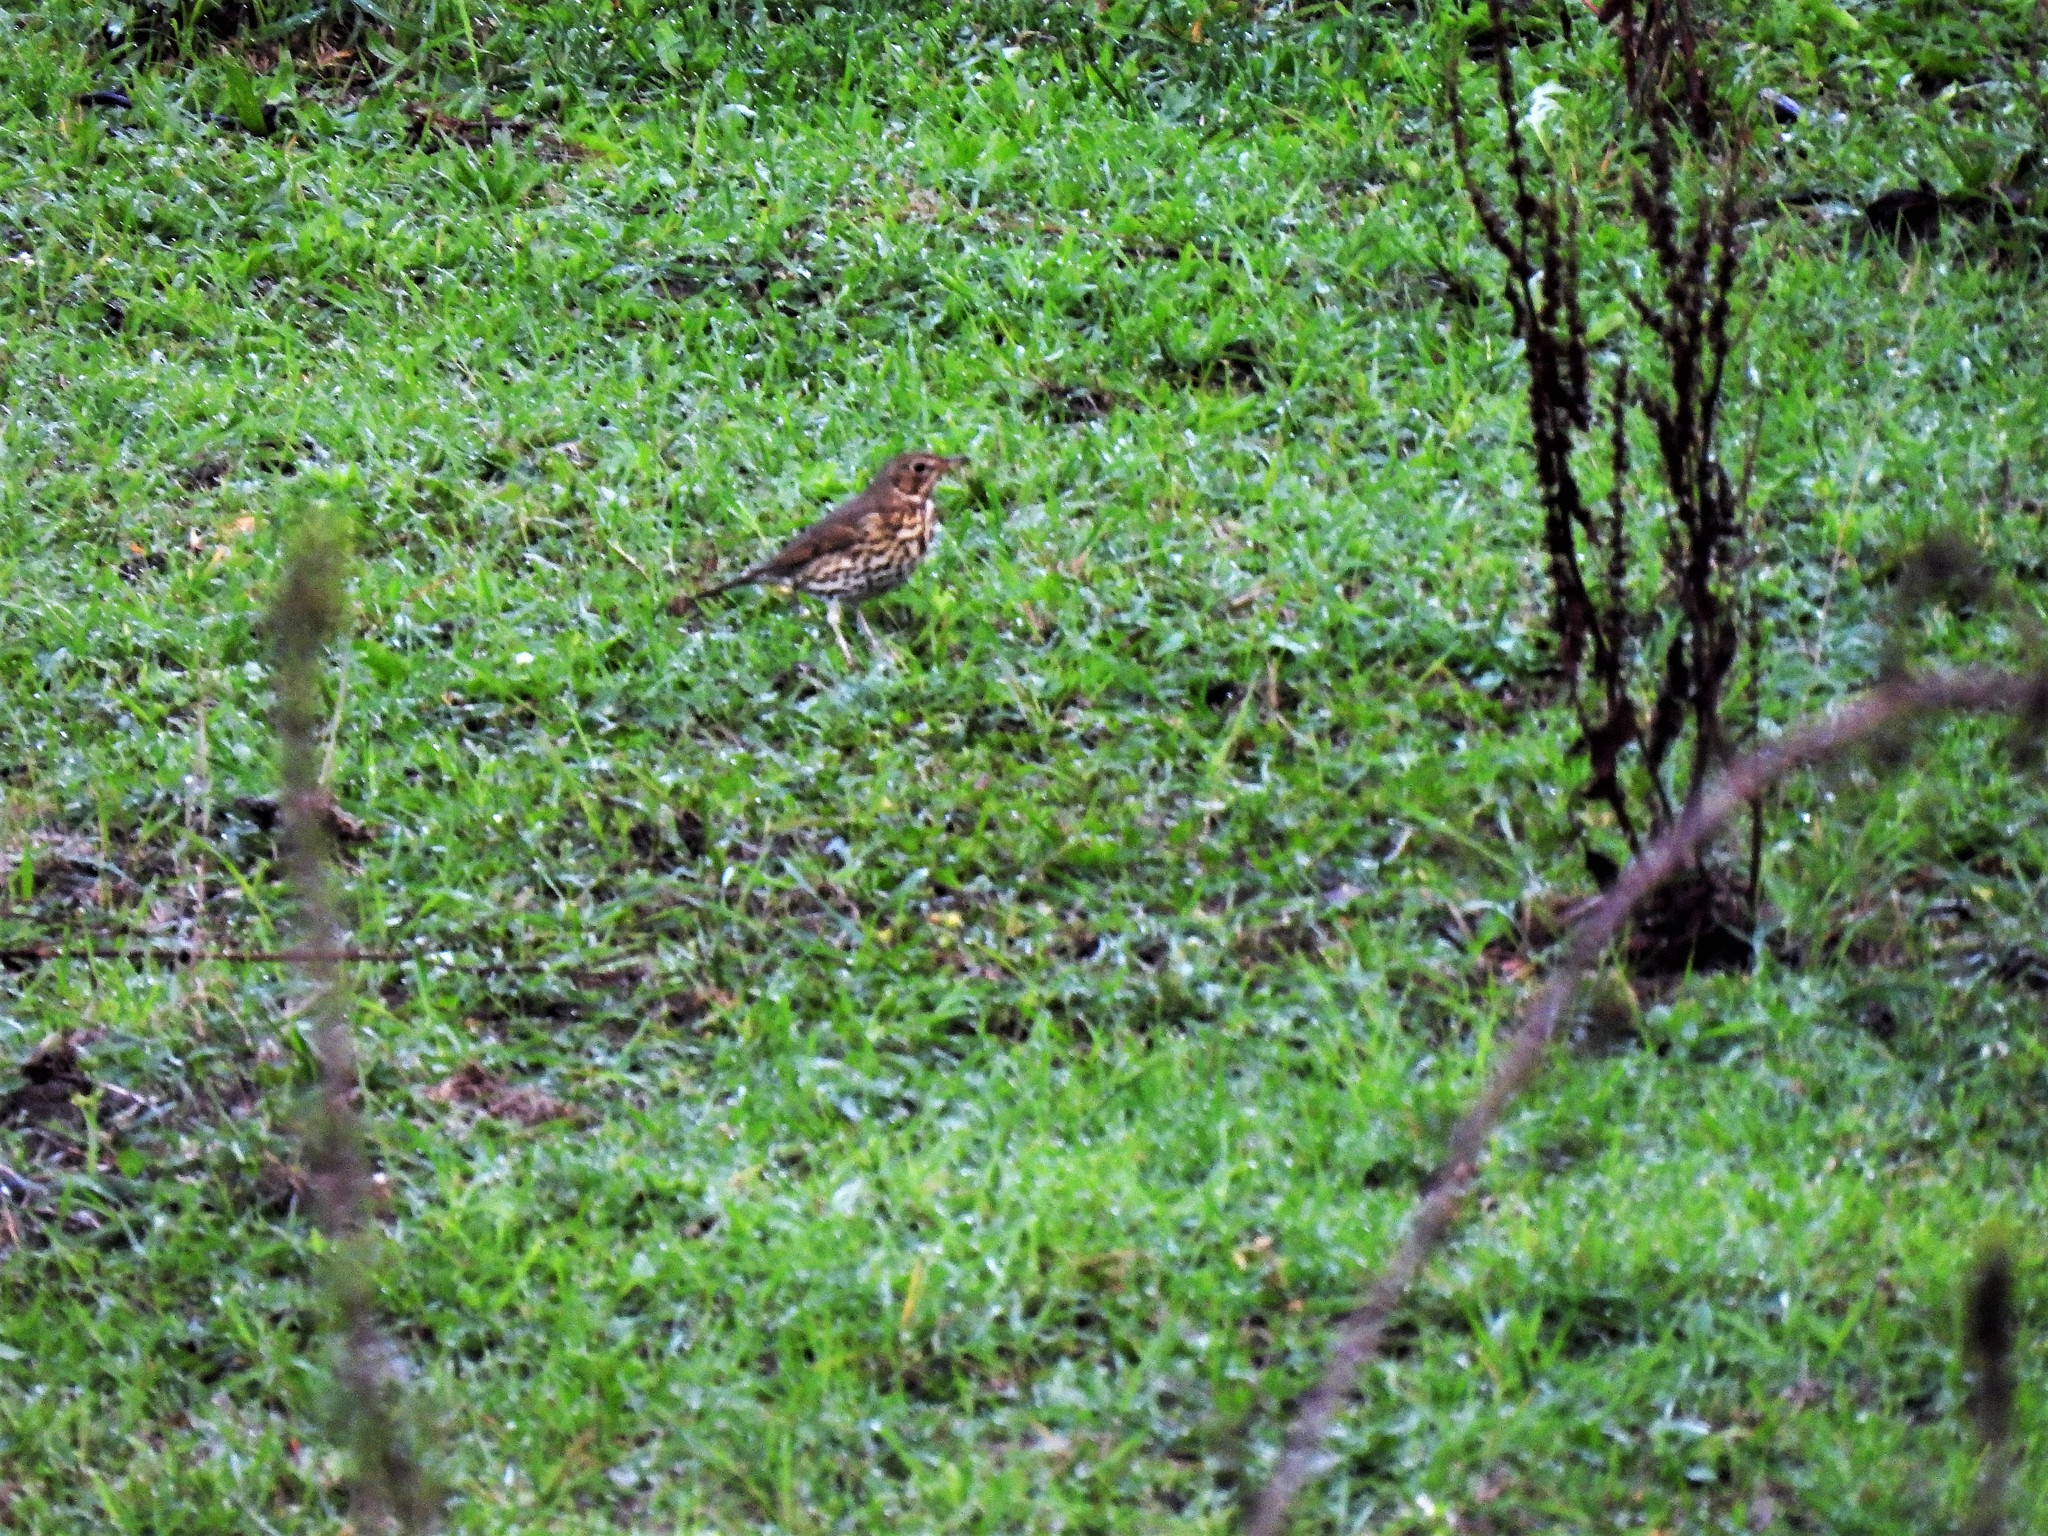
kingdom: Animalia
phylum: Chordata
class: Aves
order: Passeriformes
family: Turdidae
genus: Turdus
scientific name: Turdus philomelos
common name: Song thrush
